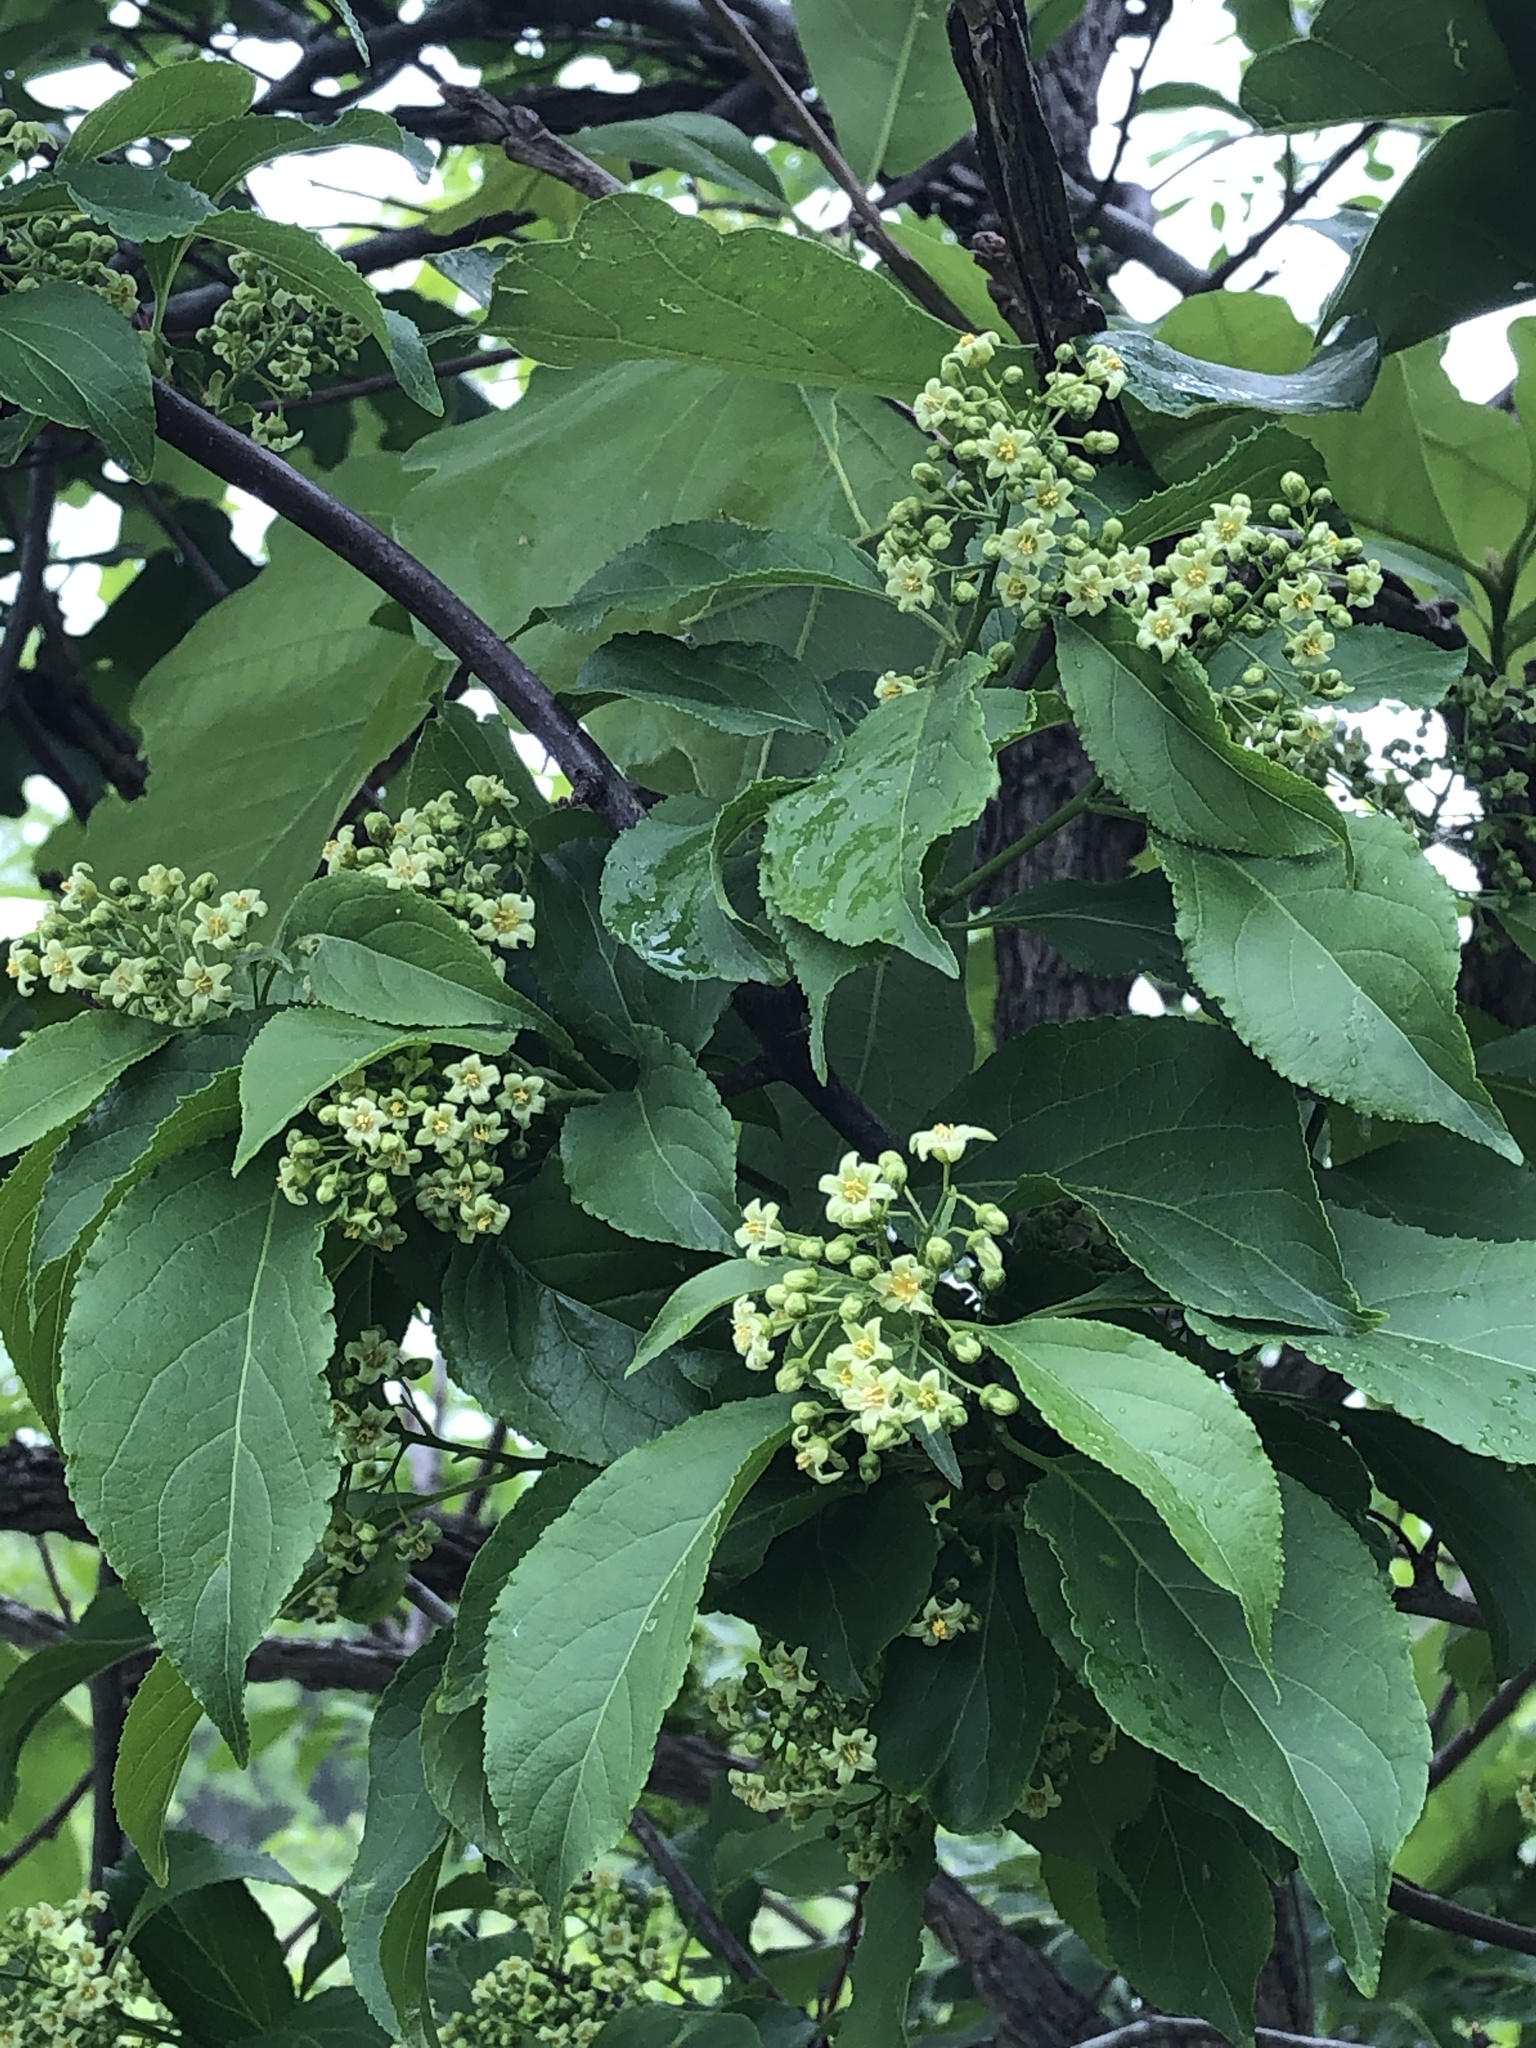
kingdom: Plantae
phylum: Tracheophyta
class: Magnoliopsida
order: Celastrales
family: Celastraceae
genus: Celastrus
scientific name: Celastrus scandens
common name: American bittersweet
